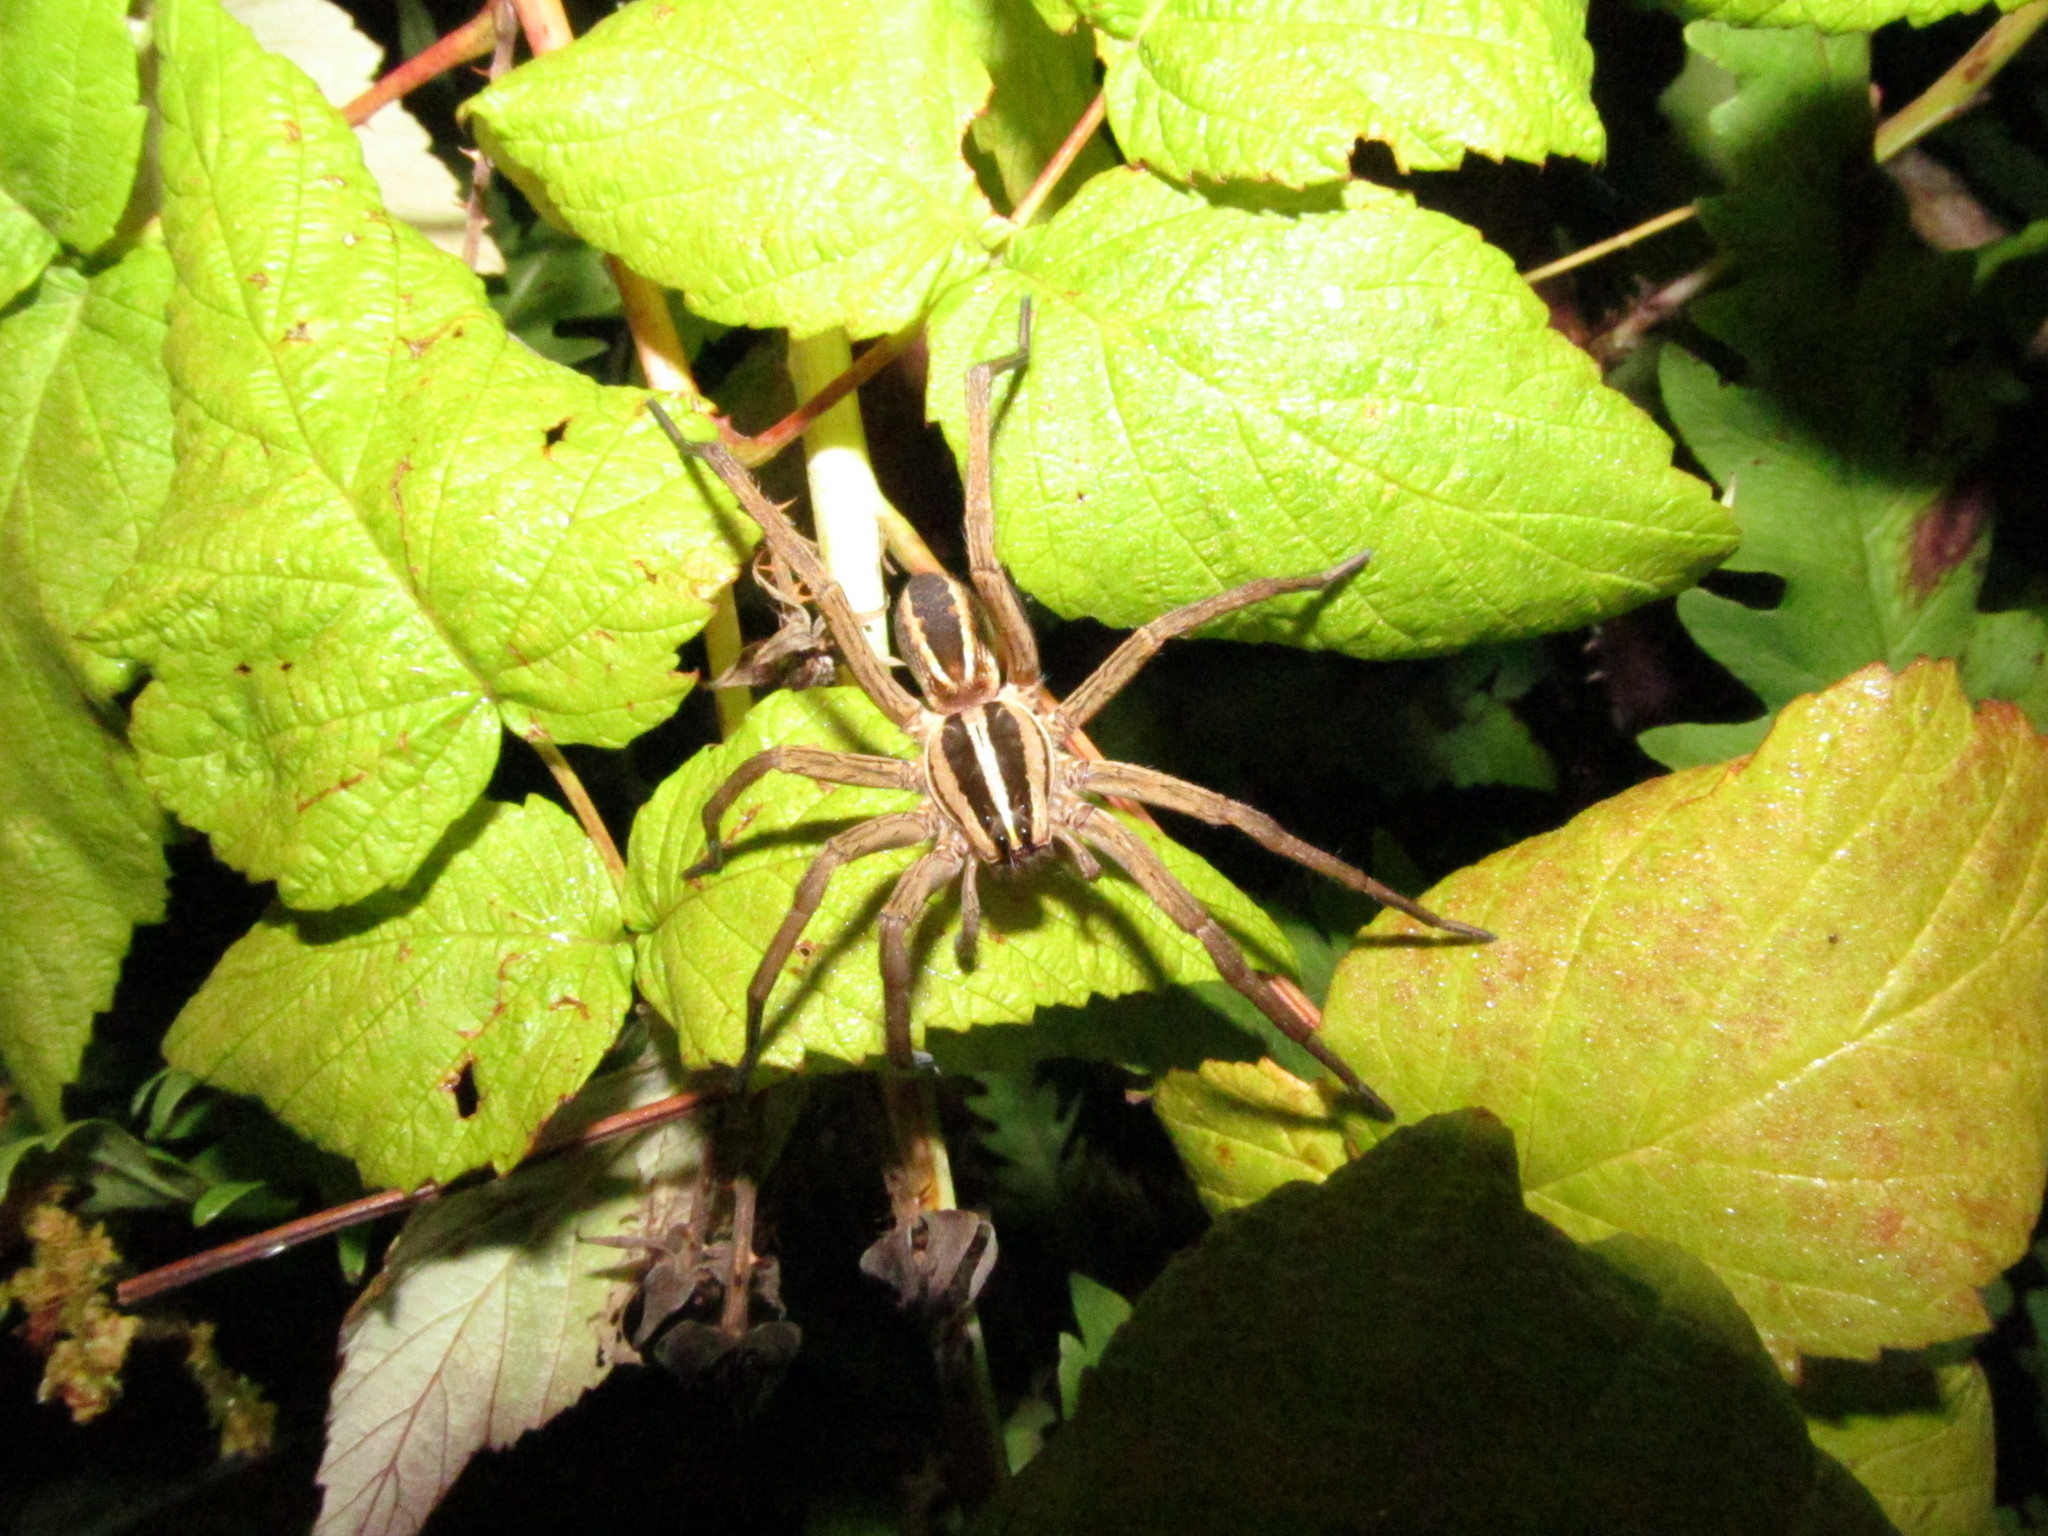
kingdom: Animalia
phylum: Arthropoda
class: Arachnida
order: Araneae
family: Lycosidae
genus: Rabidosa
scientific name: Rabidosa rabida
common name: Rabid wolf spider
